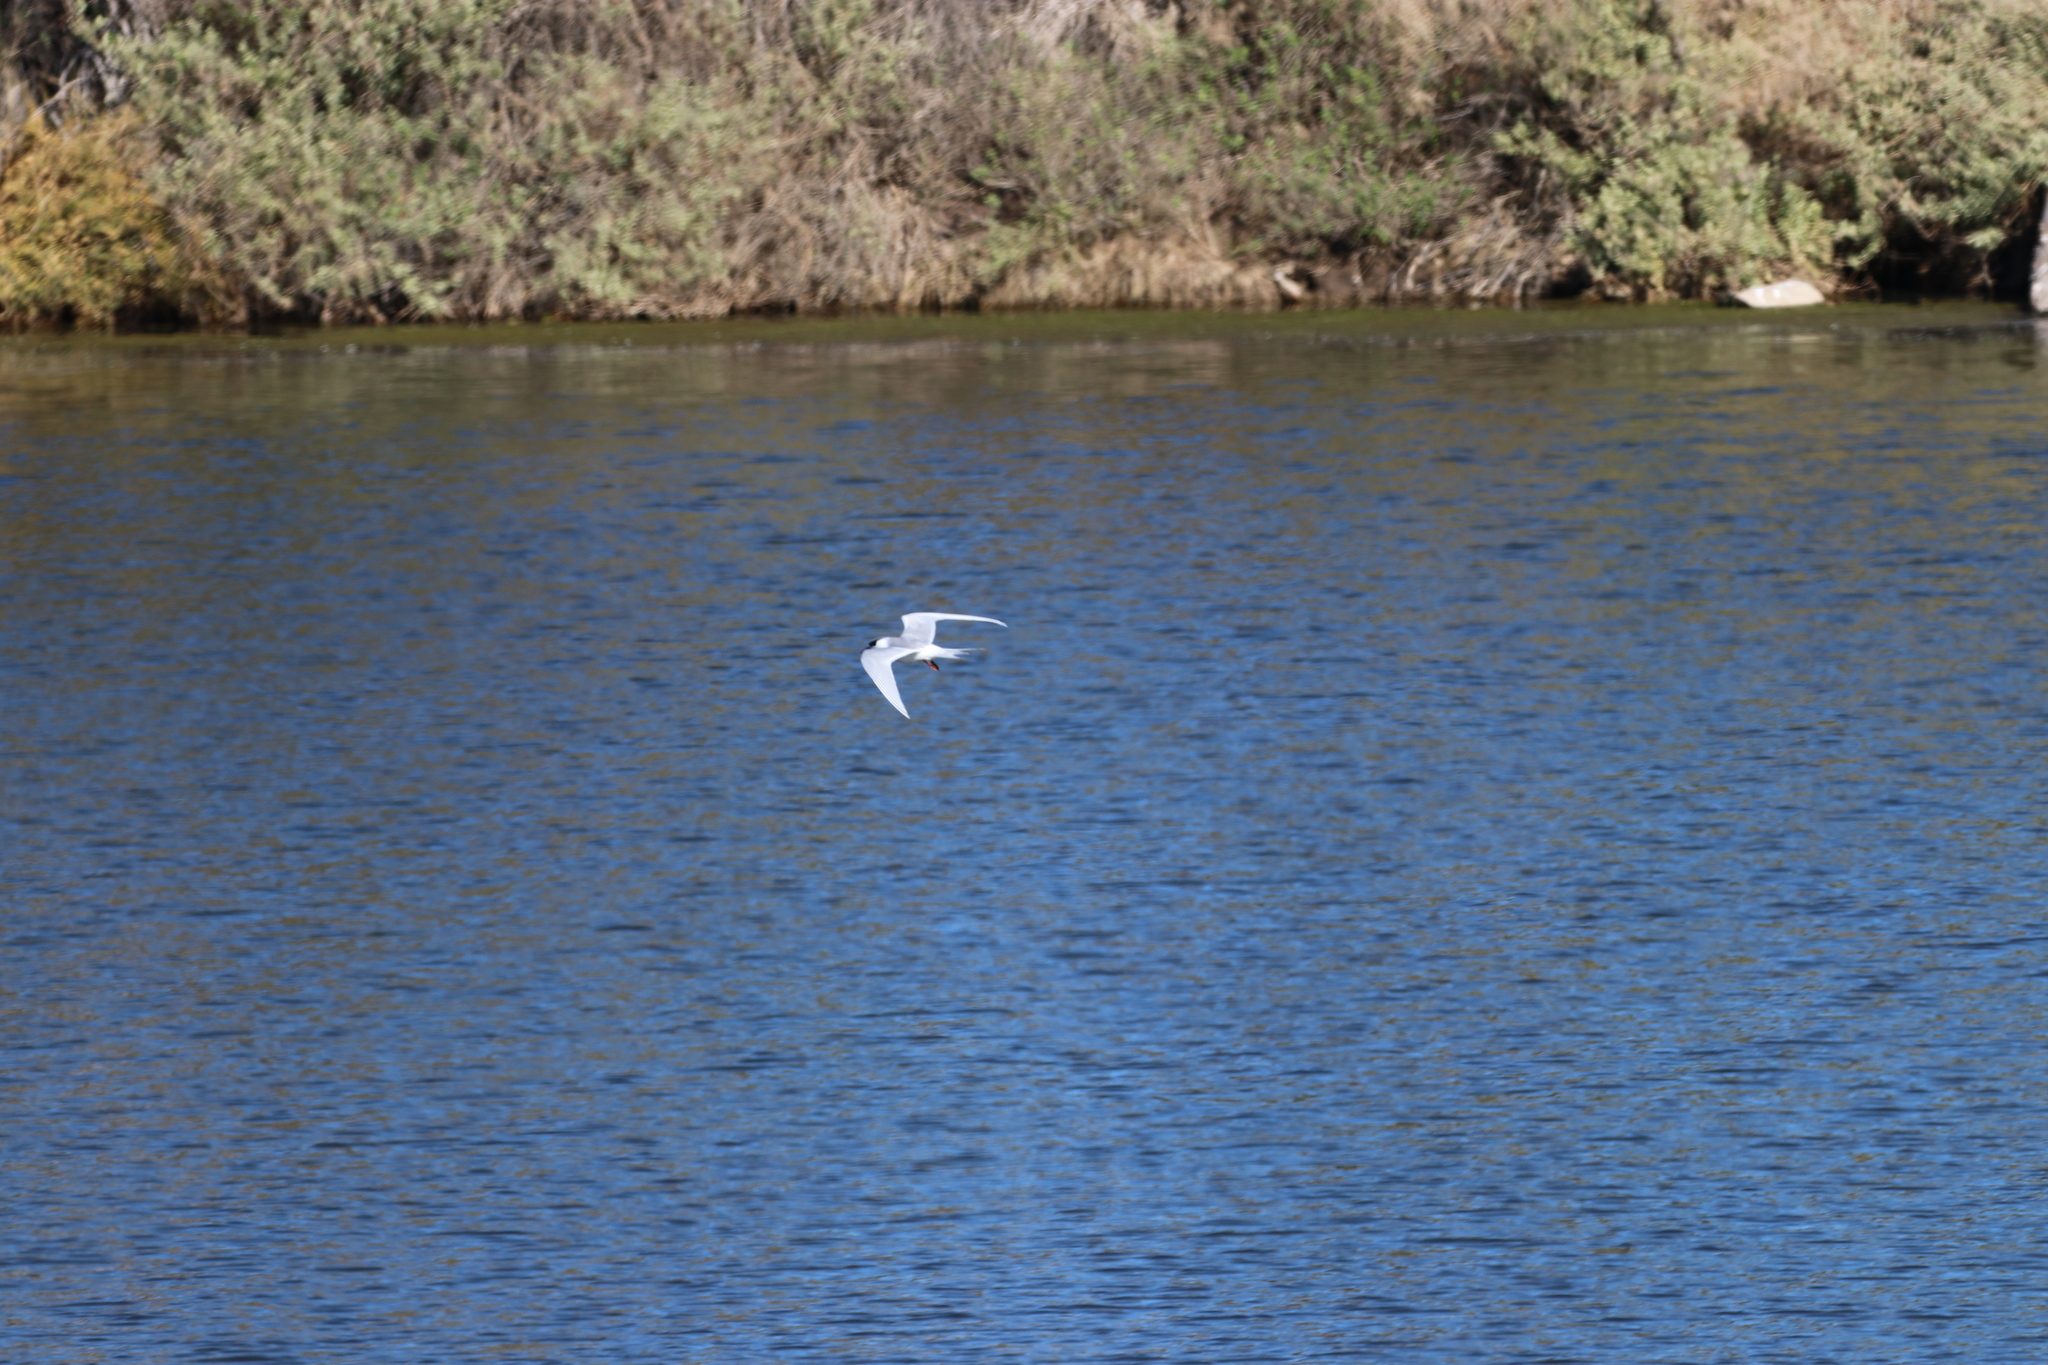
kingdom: Animalia
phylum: Chordata
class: Aves
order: Charadriiformes
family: Laridae
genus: Sterna
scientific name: Sterna forsteri
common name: Forster's tern
